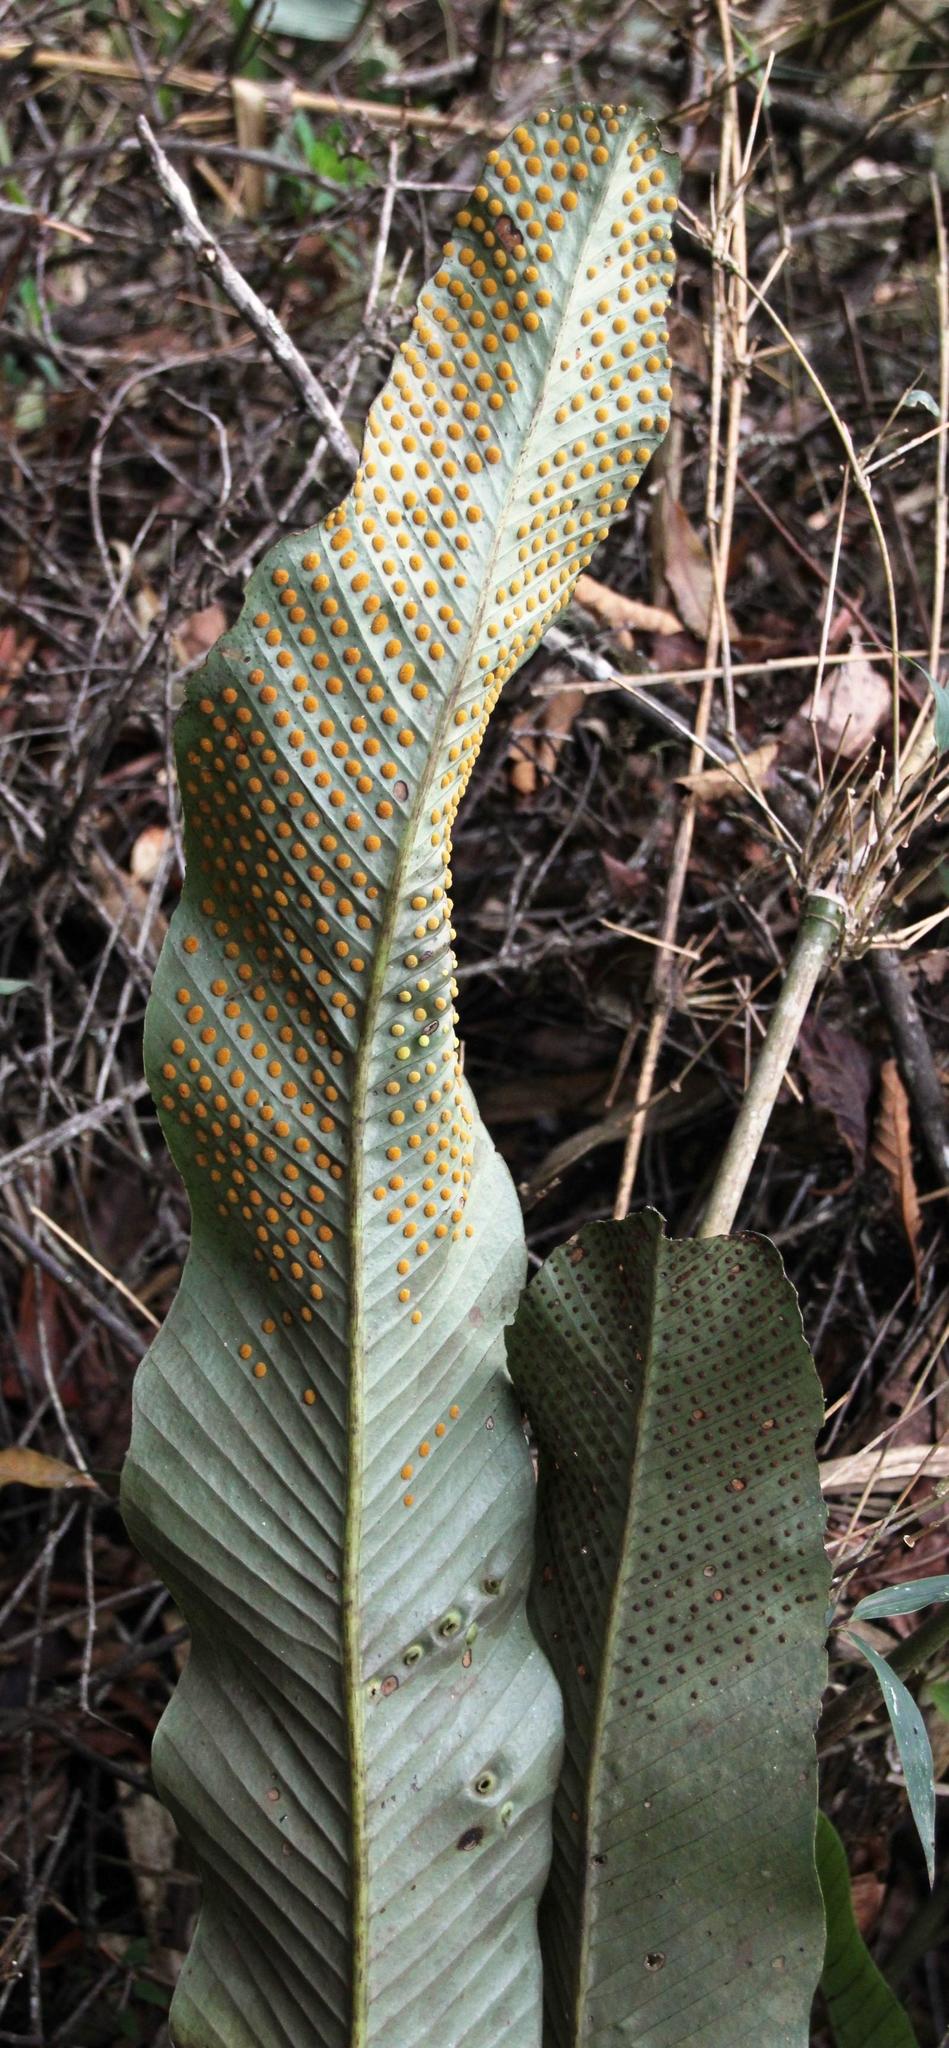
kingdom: Plantae
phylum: Tracheophyta
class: Polypodiopsida
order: Polypodiales
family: Polypodiaceae
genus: Niphidium
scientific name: Niphidium crassifolium
